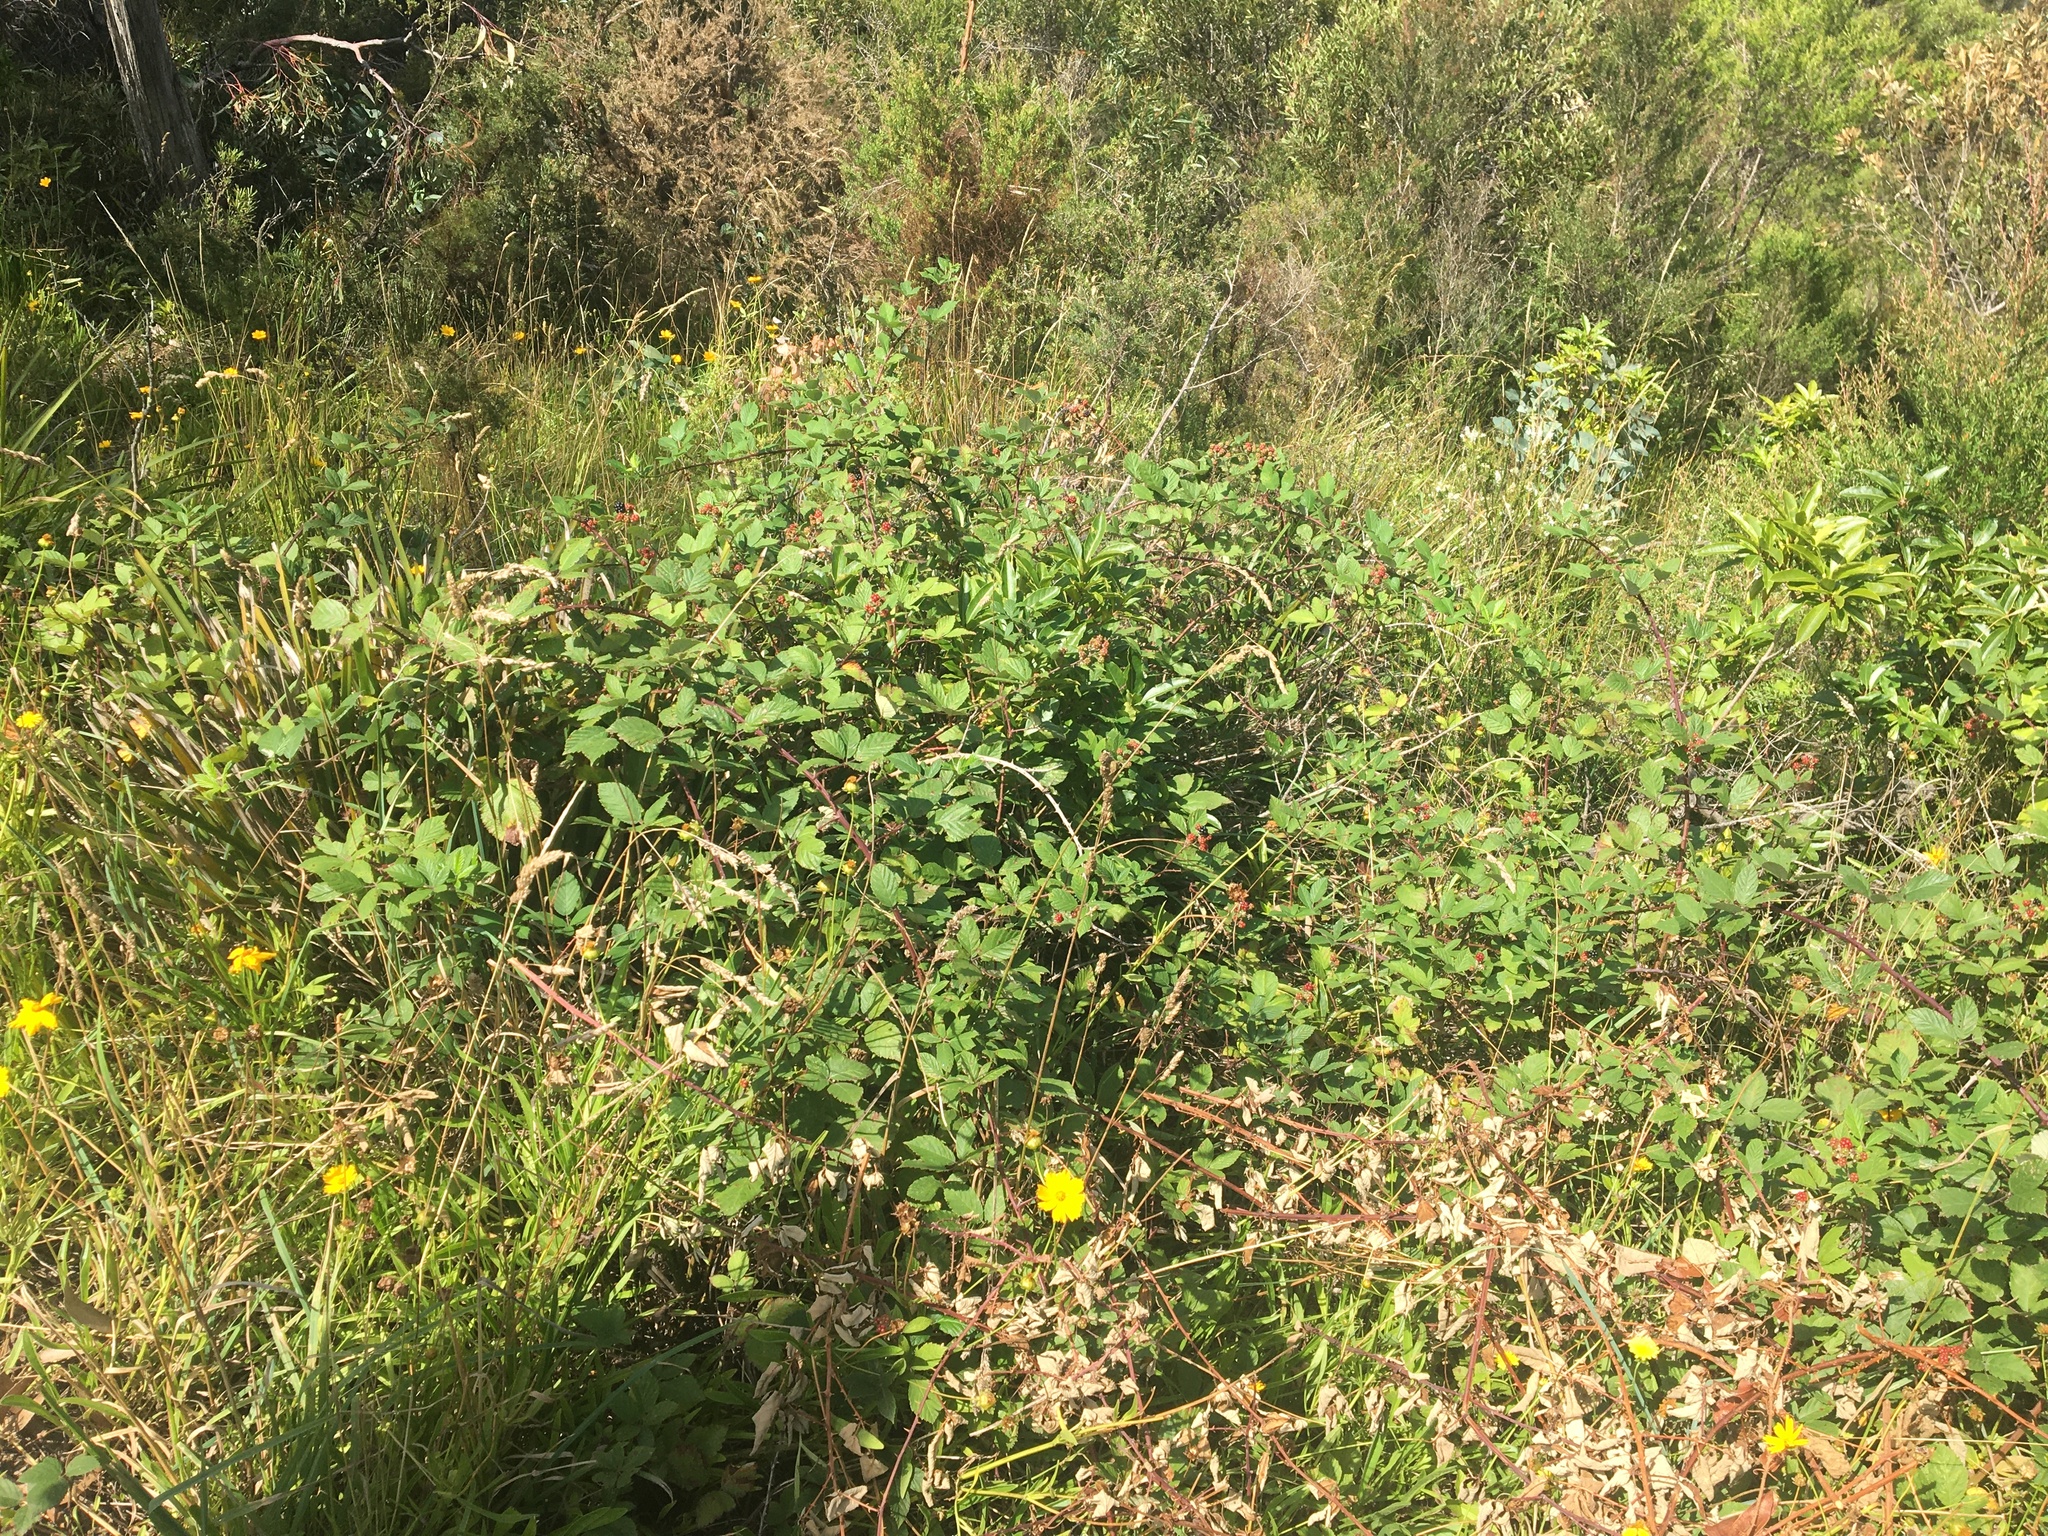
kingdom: Plantae
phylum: Tracheophyta
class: Magnoliopsida
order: Rosales
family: Rosaceae
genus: Rubus
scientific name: Rubus
